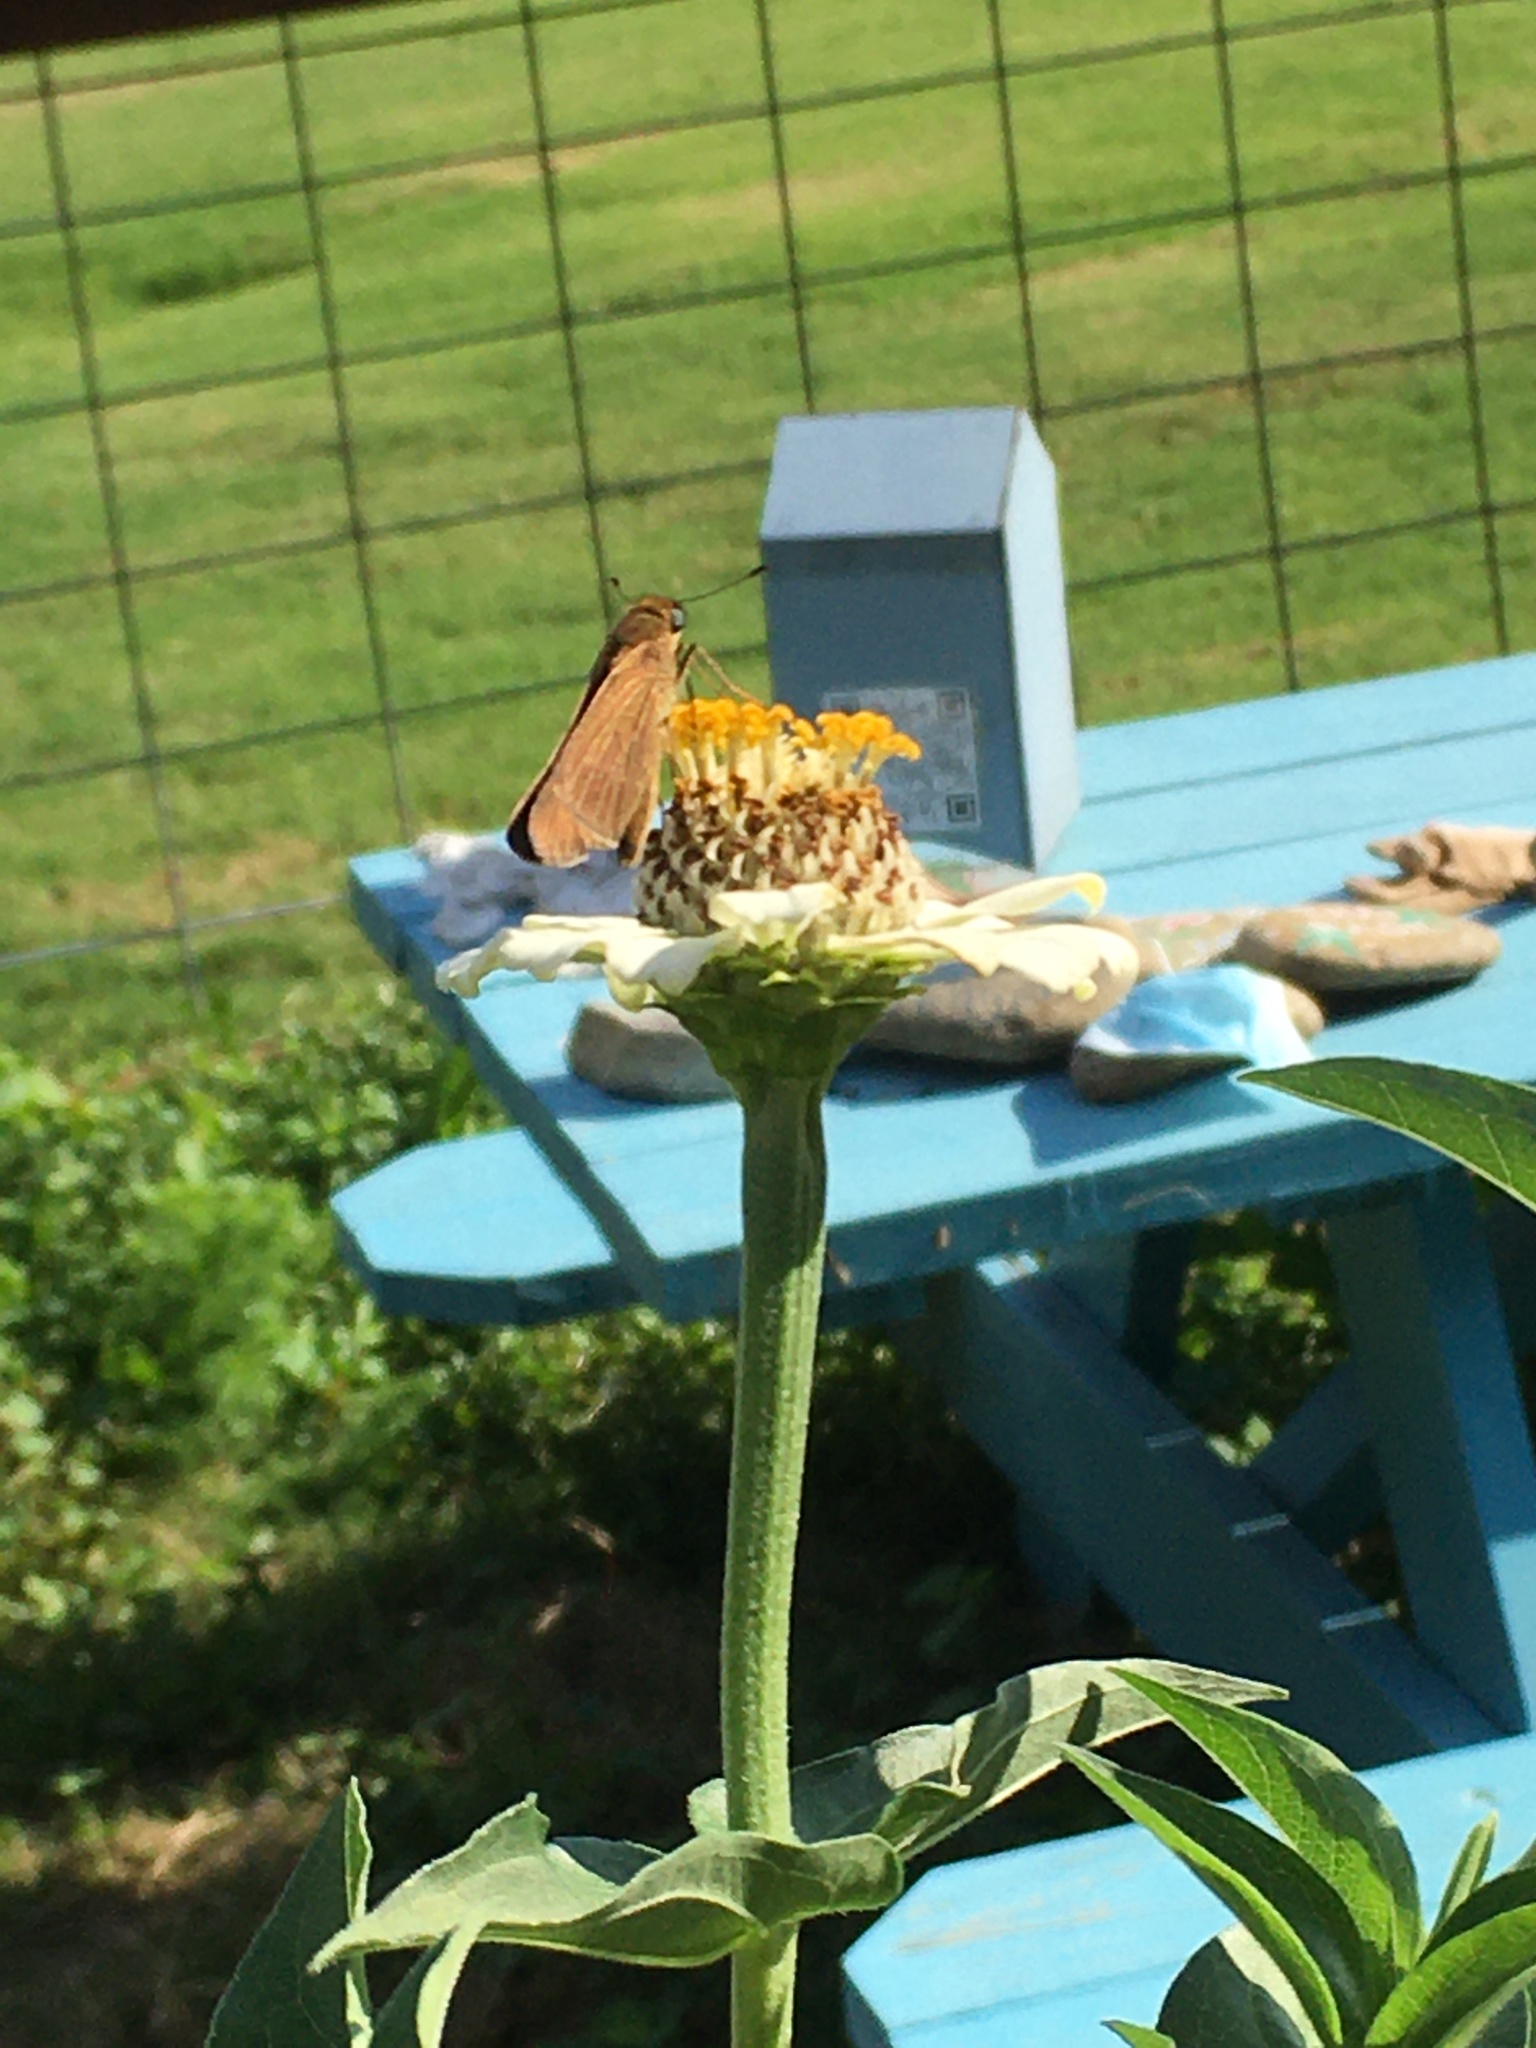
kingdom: Animalia
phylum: Arthropoda
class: Insecta
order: Lepidoptera
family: Hesperiidae
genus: Panoquina
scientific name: Panoquina ocola
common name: Ocola skipper
